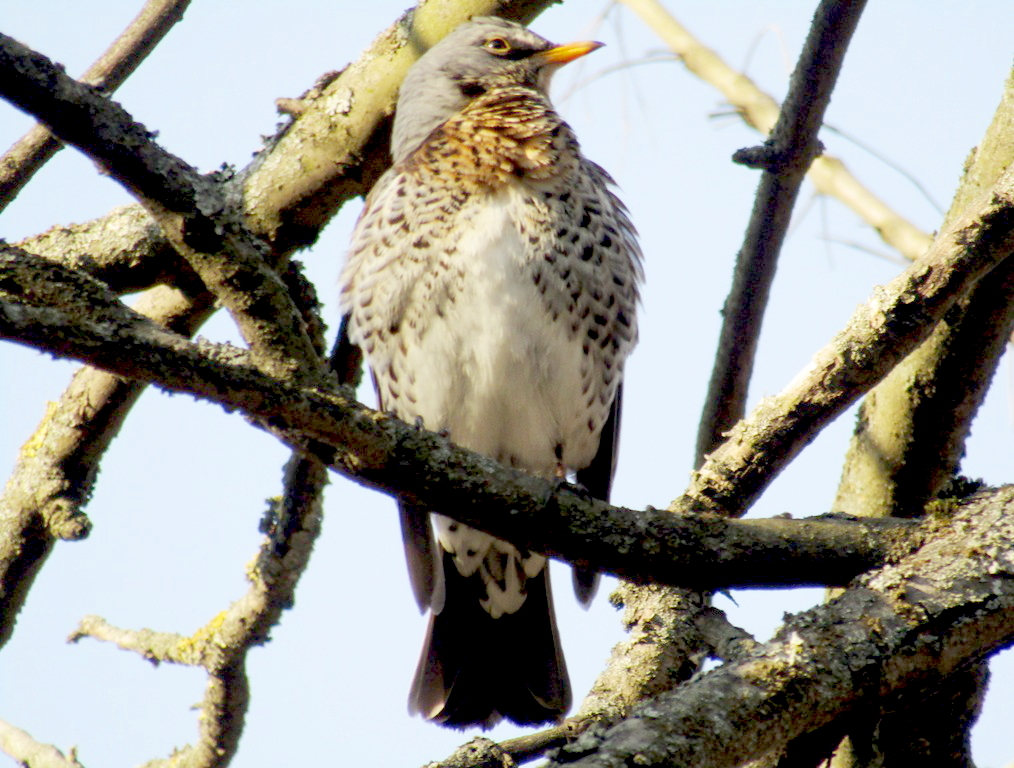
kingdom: Animalia
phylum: Chordata
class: Aves
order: Passeriformes
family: Turdidae
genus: Turdus
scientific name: Turdus pilaris
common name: Fieldfare
